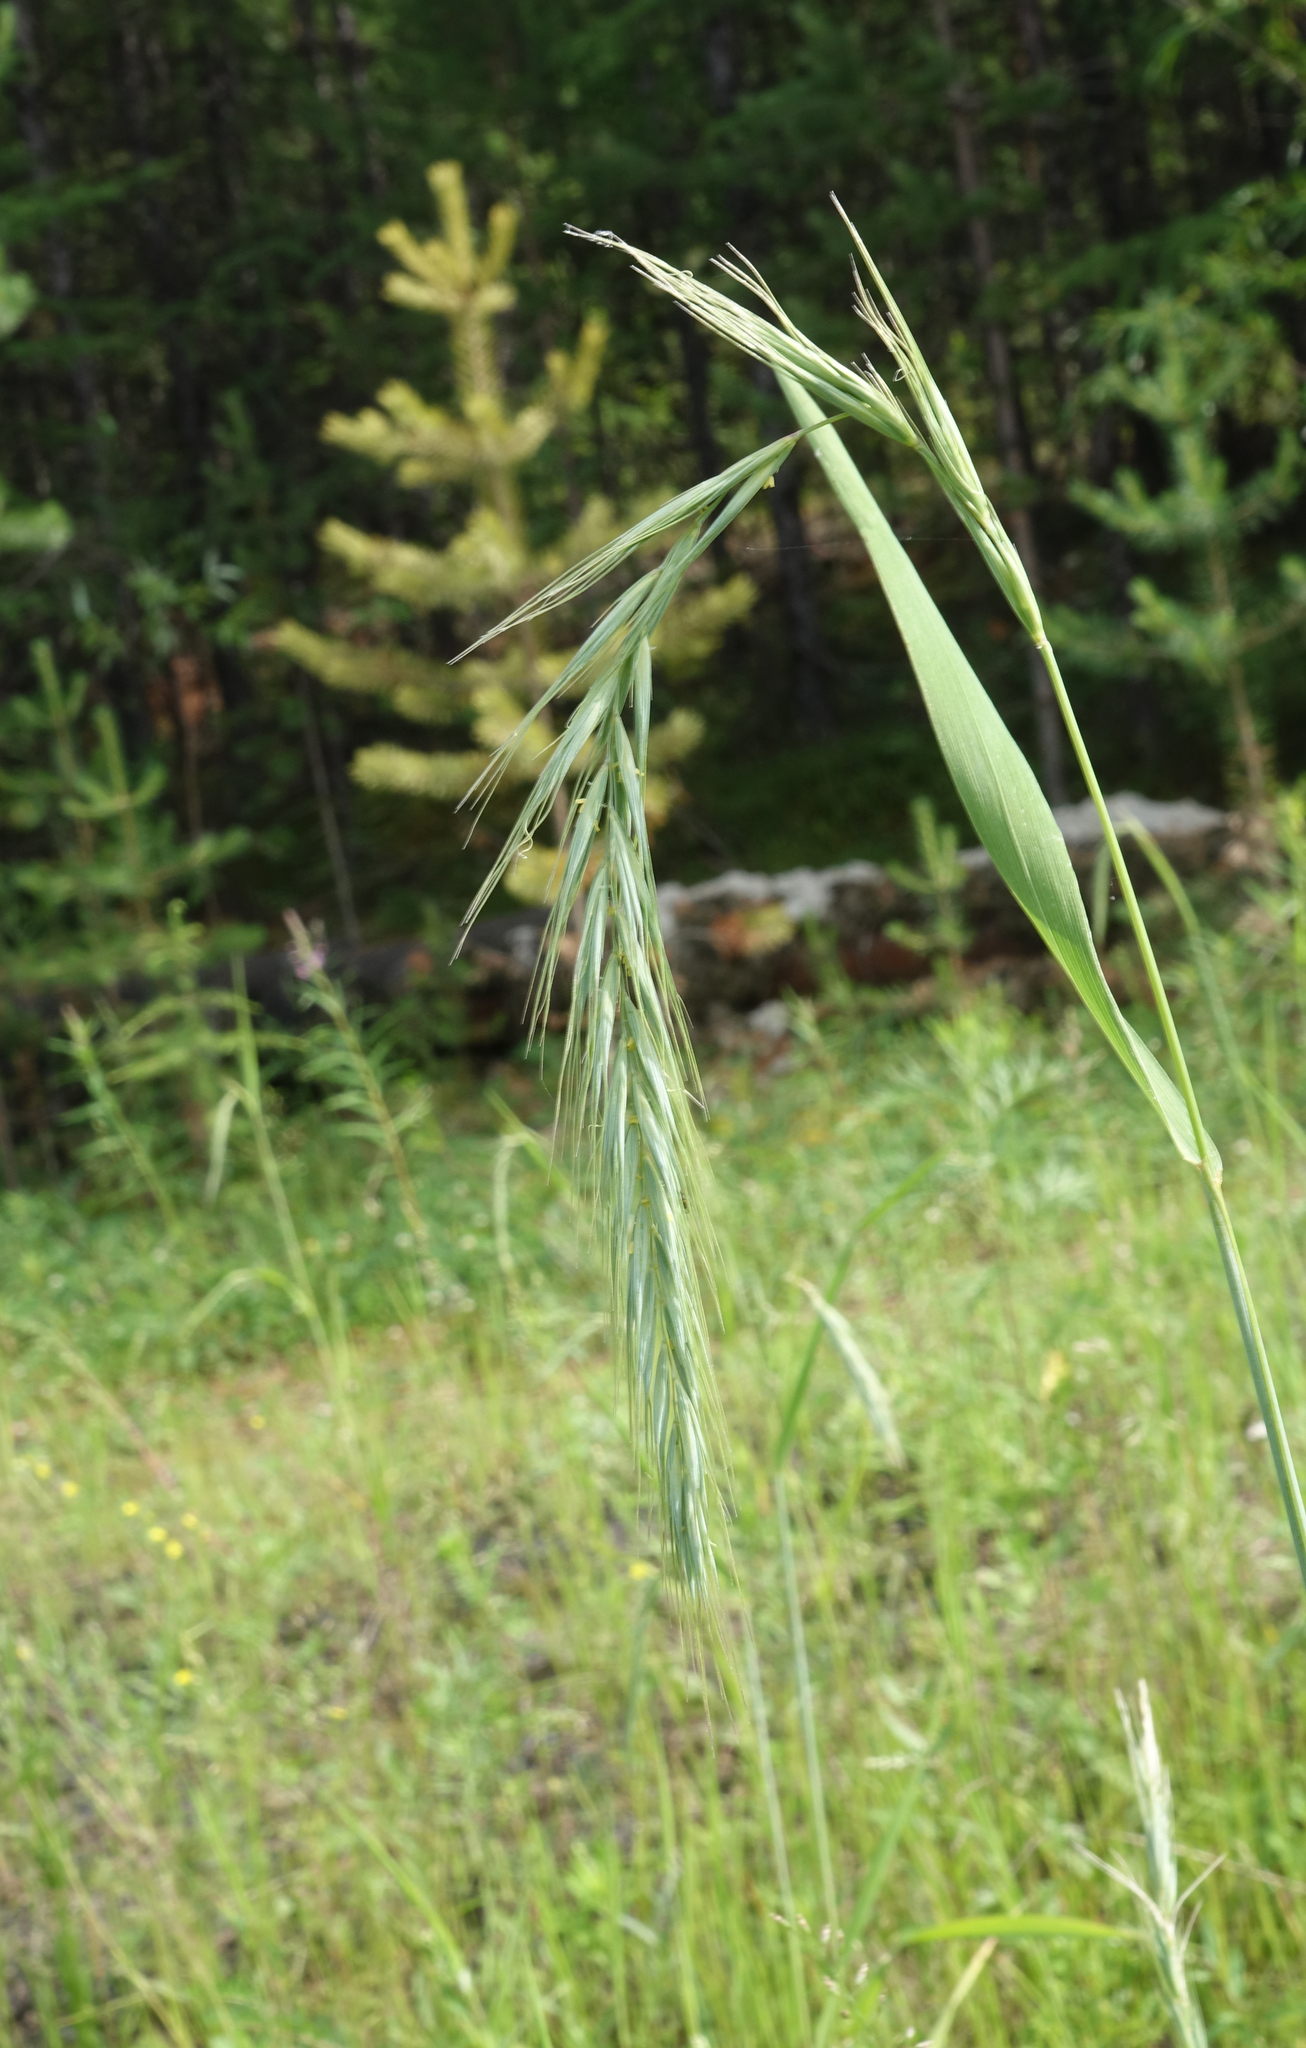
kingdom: Plantae
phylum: Tracheophyta
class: Liliopsida
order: Poales
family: Poaceae
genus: Elymus
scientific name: Elymus sibiricus
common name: Siberian wildrye
